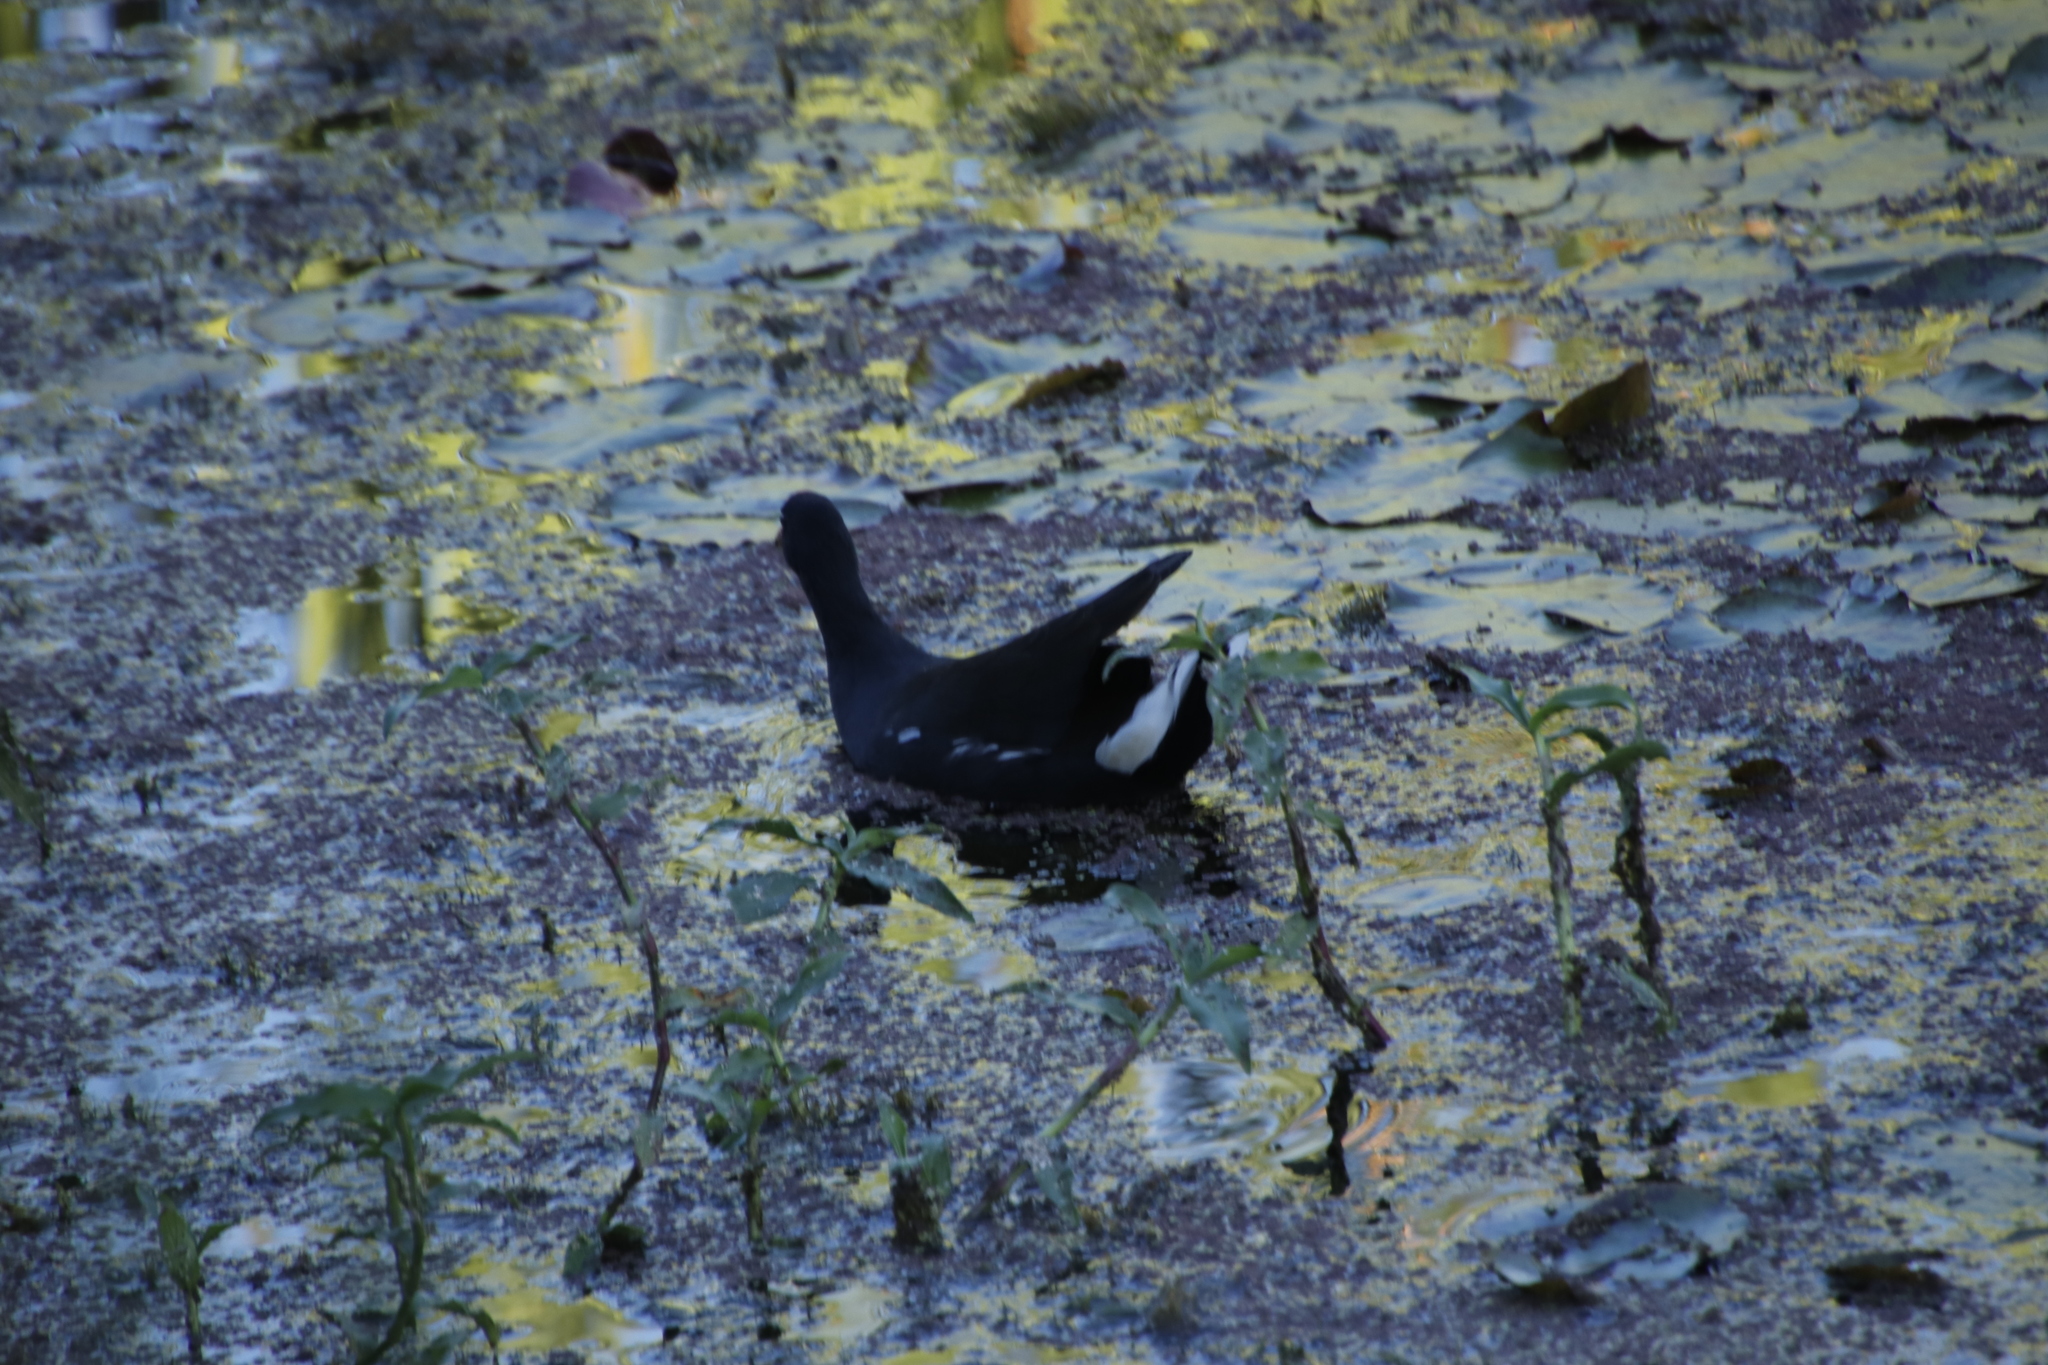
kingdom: Animalia
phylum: Chordata
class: Aves
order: Gruiformes
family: Rallidae
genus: Gallinula
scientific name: Gallinula chloropus
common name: Common moorhen
